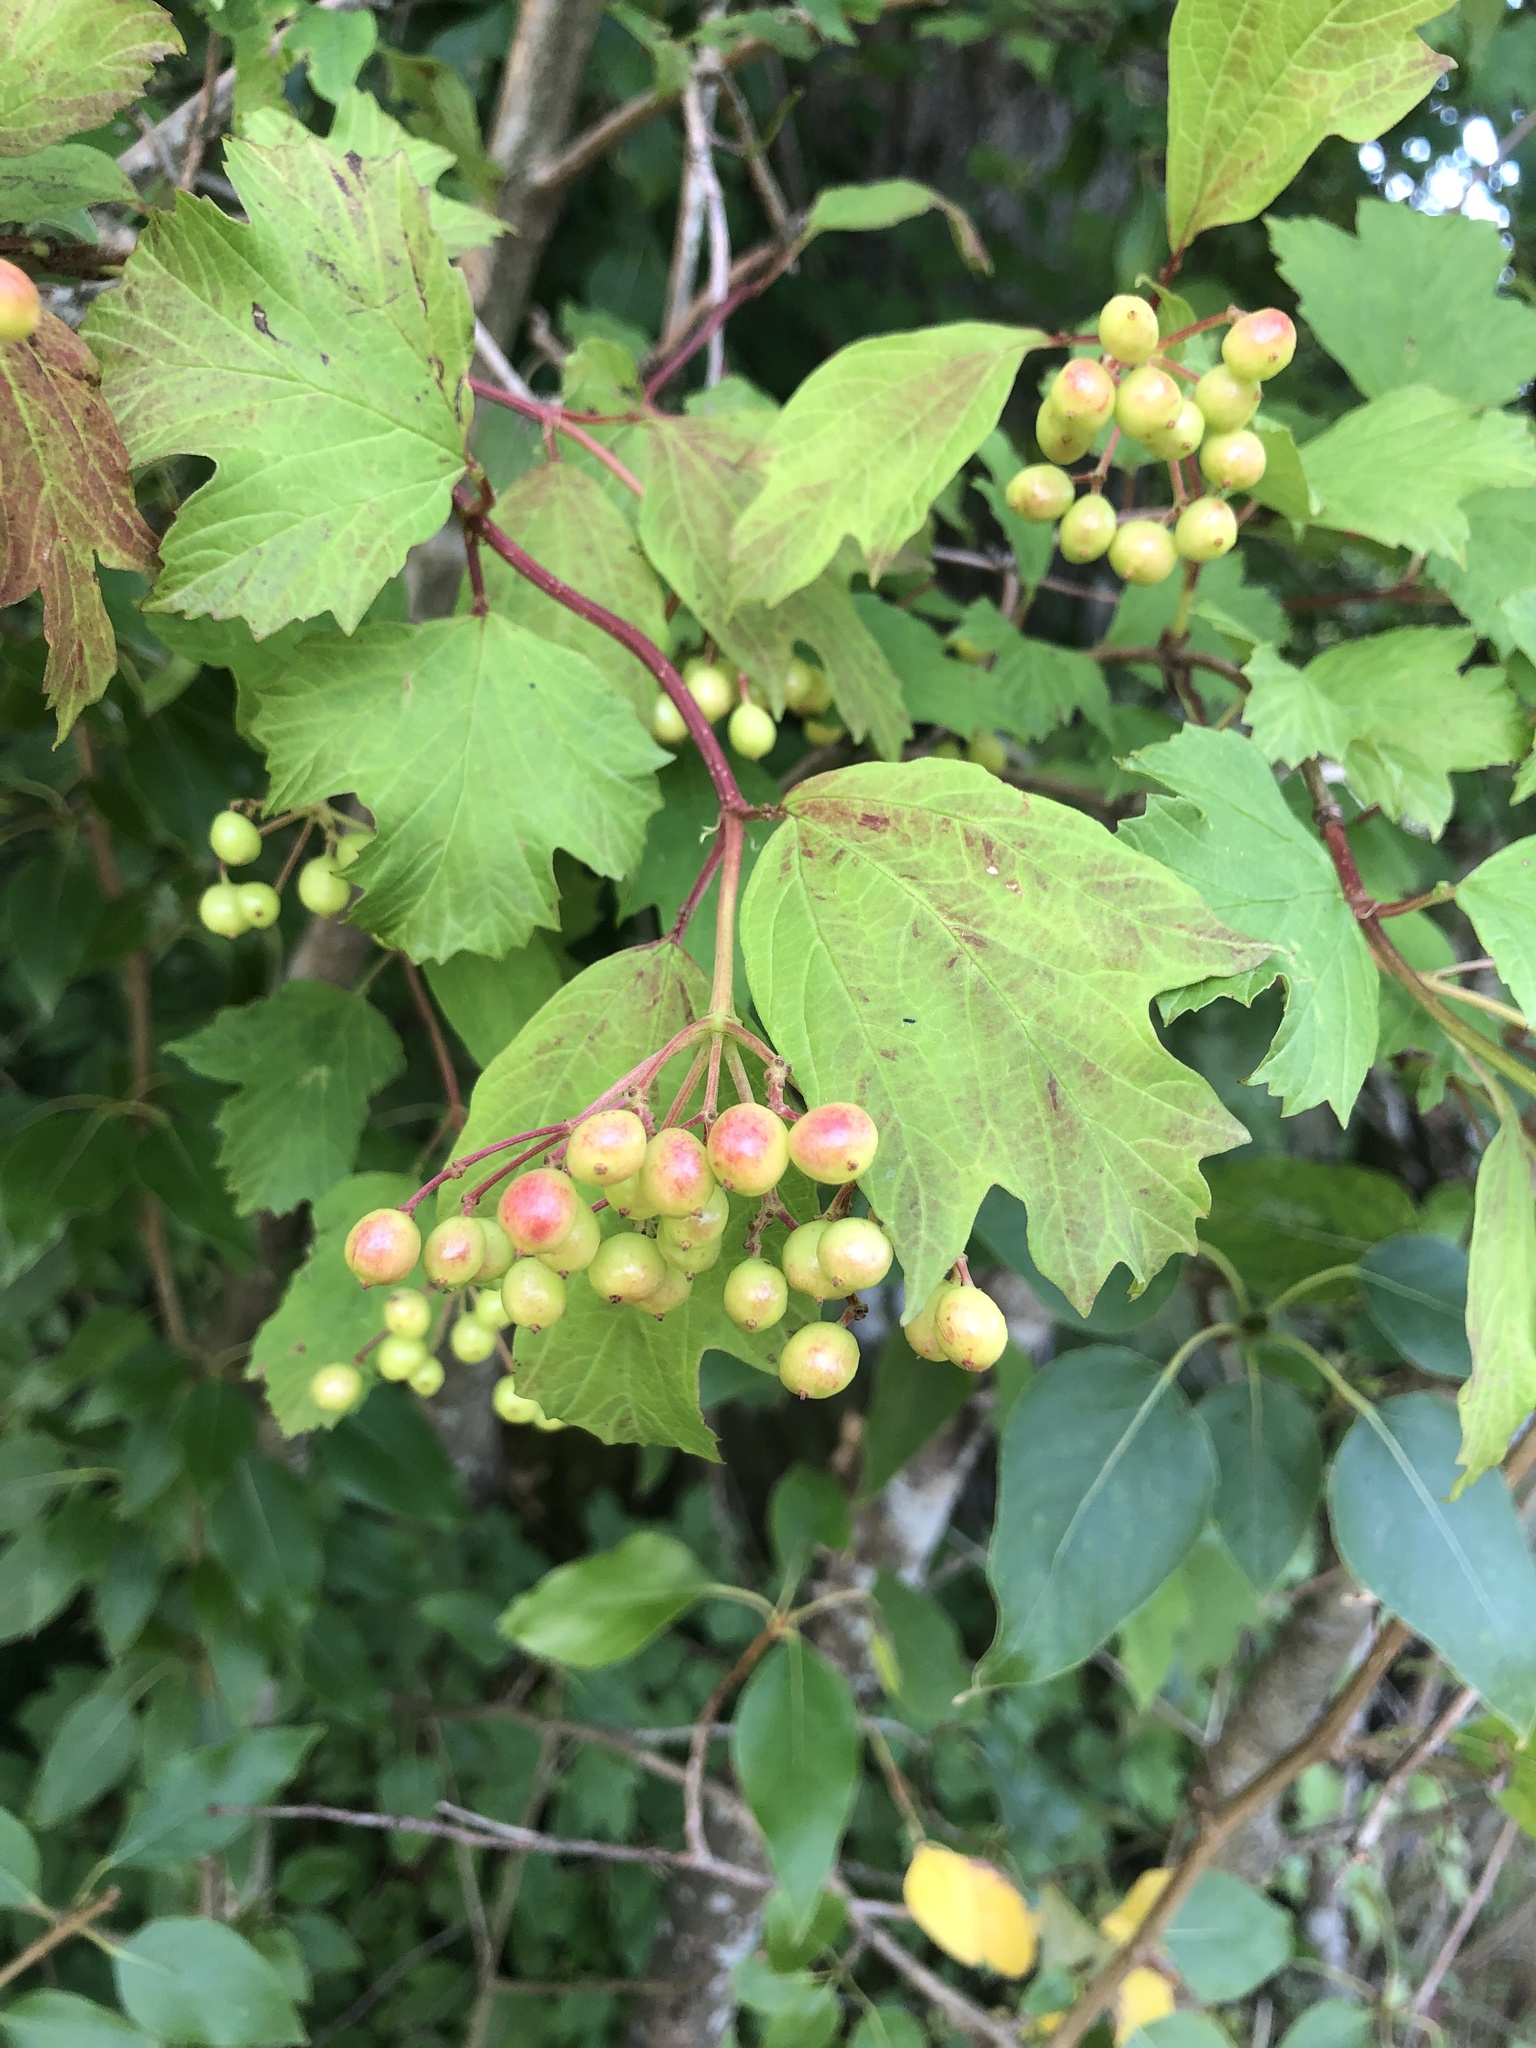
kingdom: Plantae
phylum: Tracheophyta
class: Magnoliopsida
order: Dipsacales
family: Viburnaceae
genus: Viburnum
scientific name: Viburnum opulus
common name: Guelder-rose
